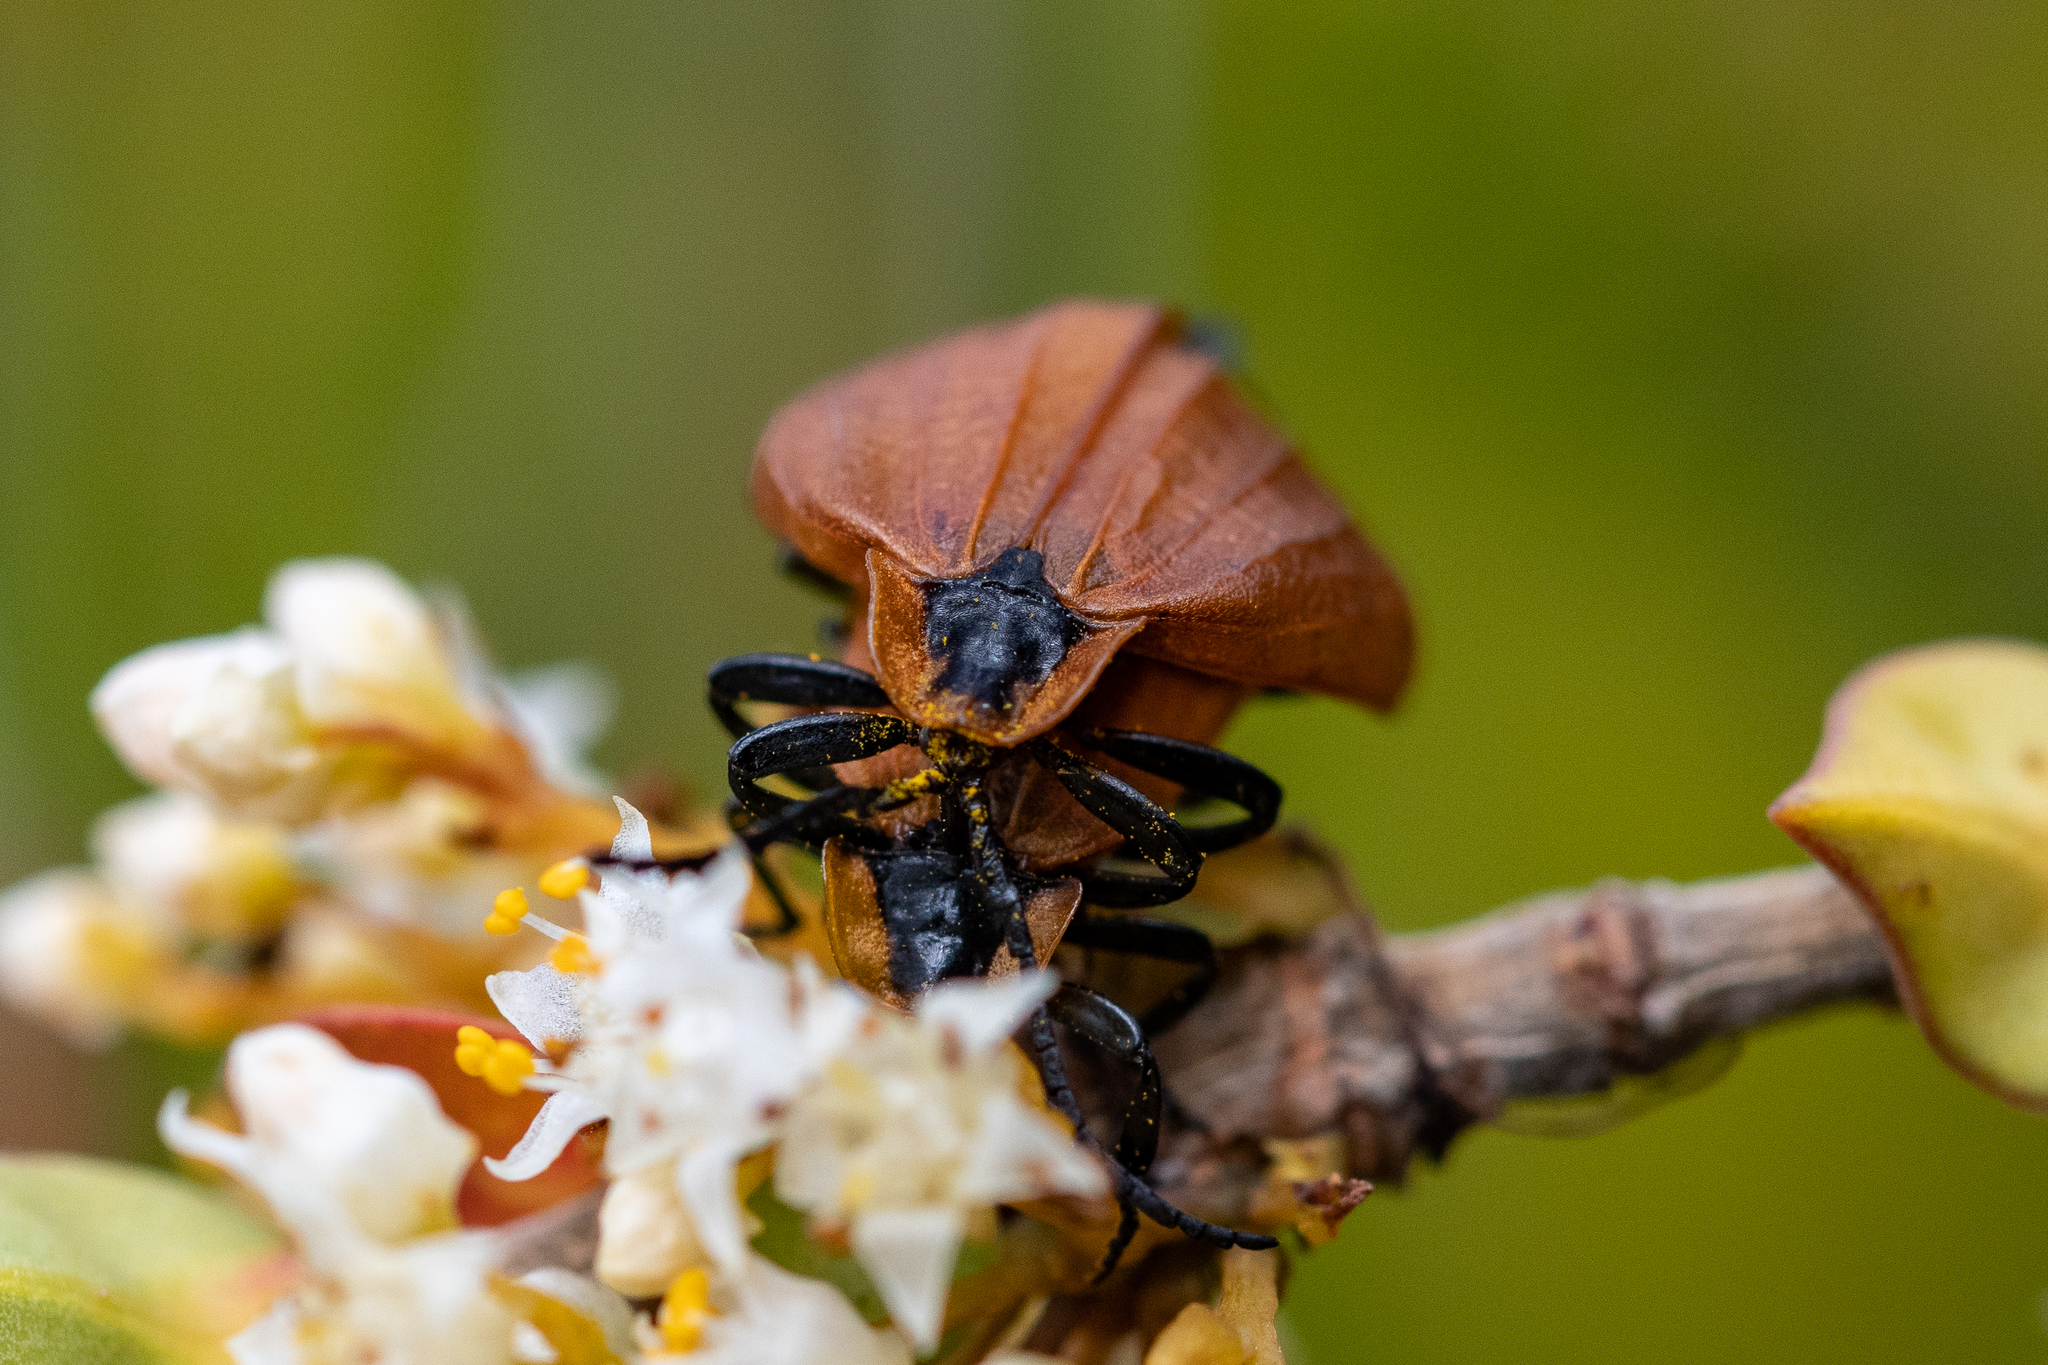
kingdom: Animalia
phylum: Arthropoda
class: Insecta
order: Coleoptera
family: Lycidae
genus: Lycus
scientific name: Lycus
